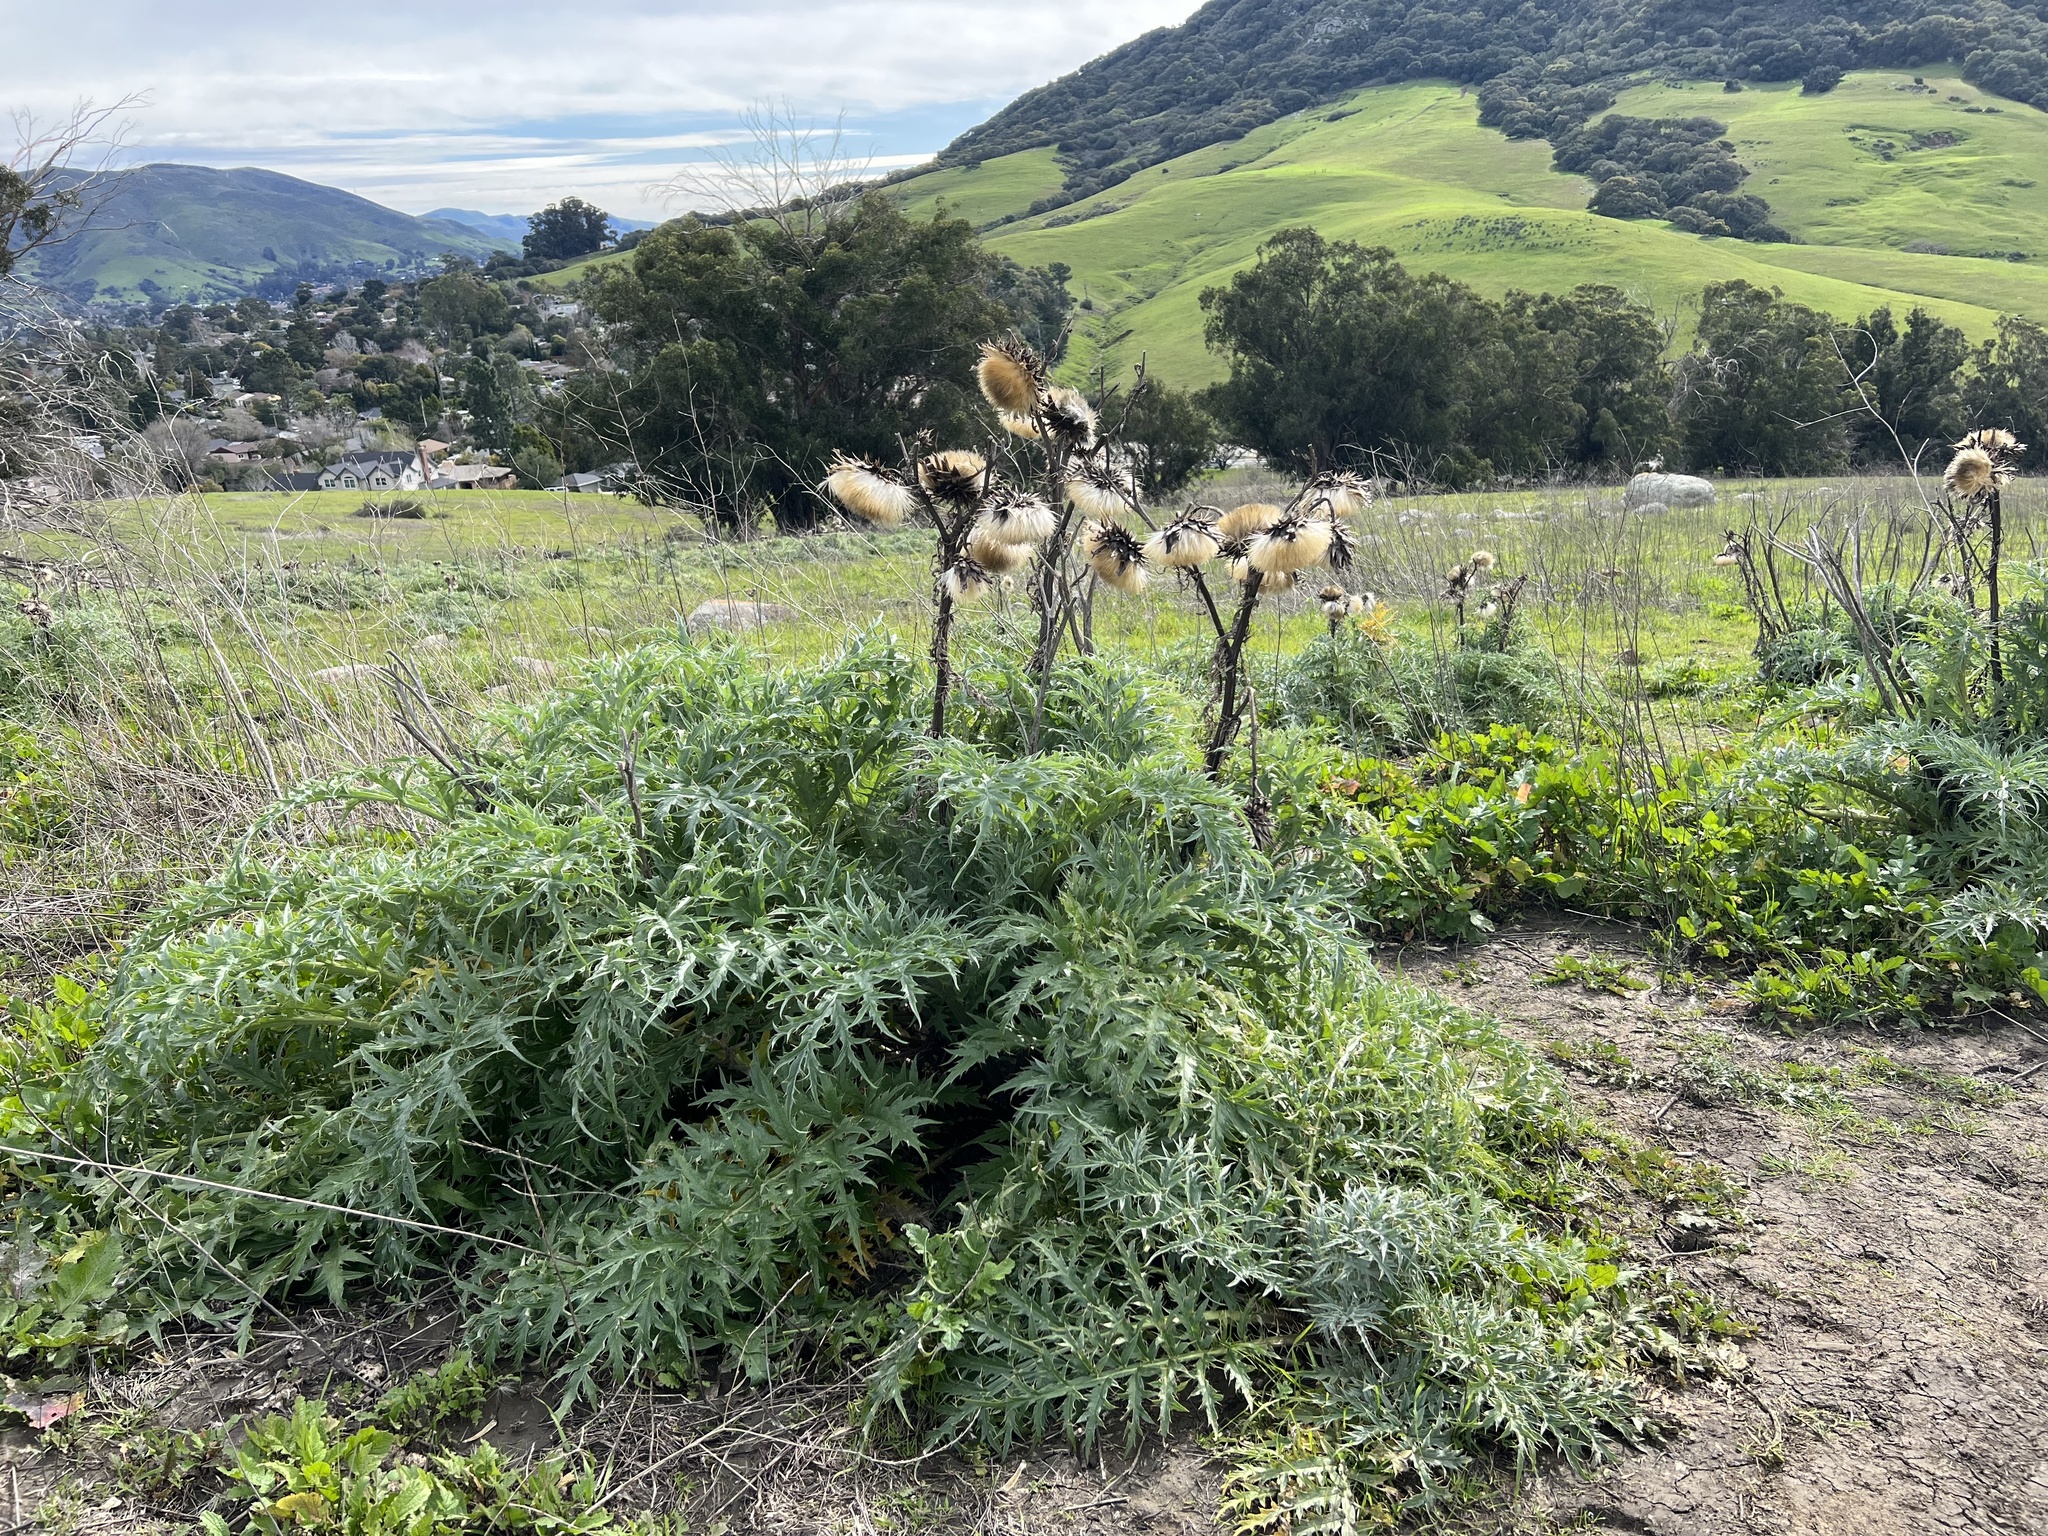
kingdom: Plantae
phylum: Tracheophyta
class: Magnoliopsida
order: Asterales
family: Asteraceae
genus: Cynara
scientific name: Cynara cardunculus
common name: Globe artichoke
